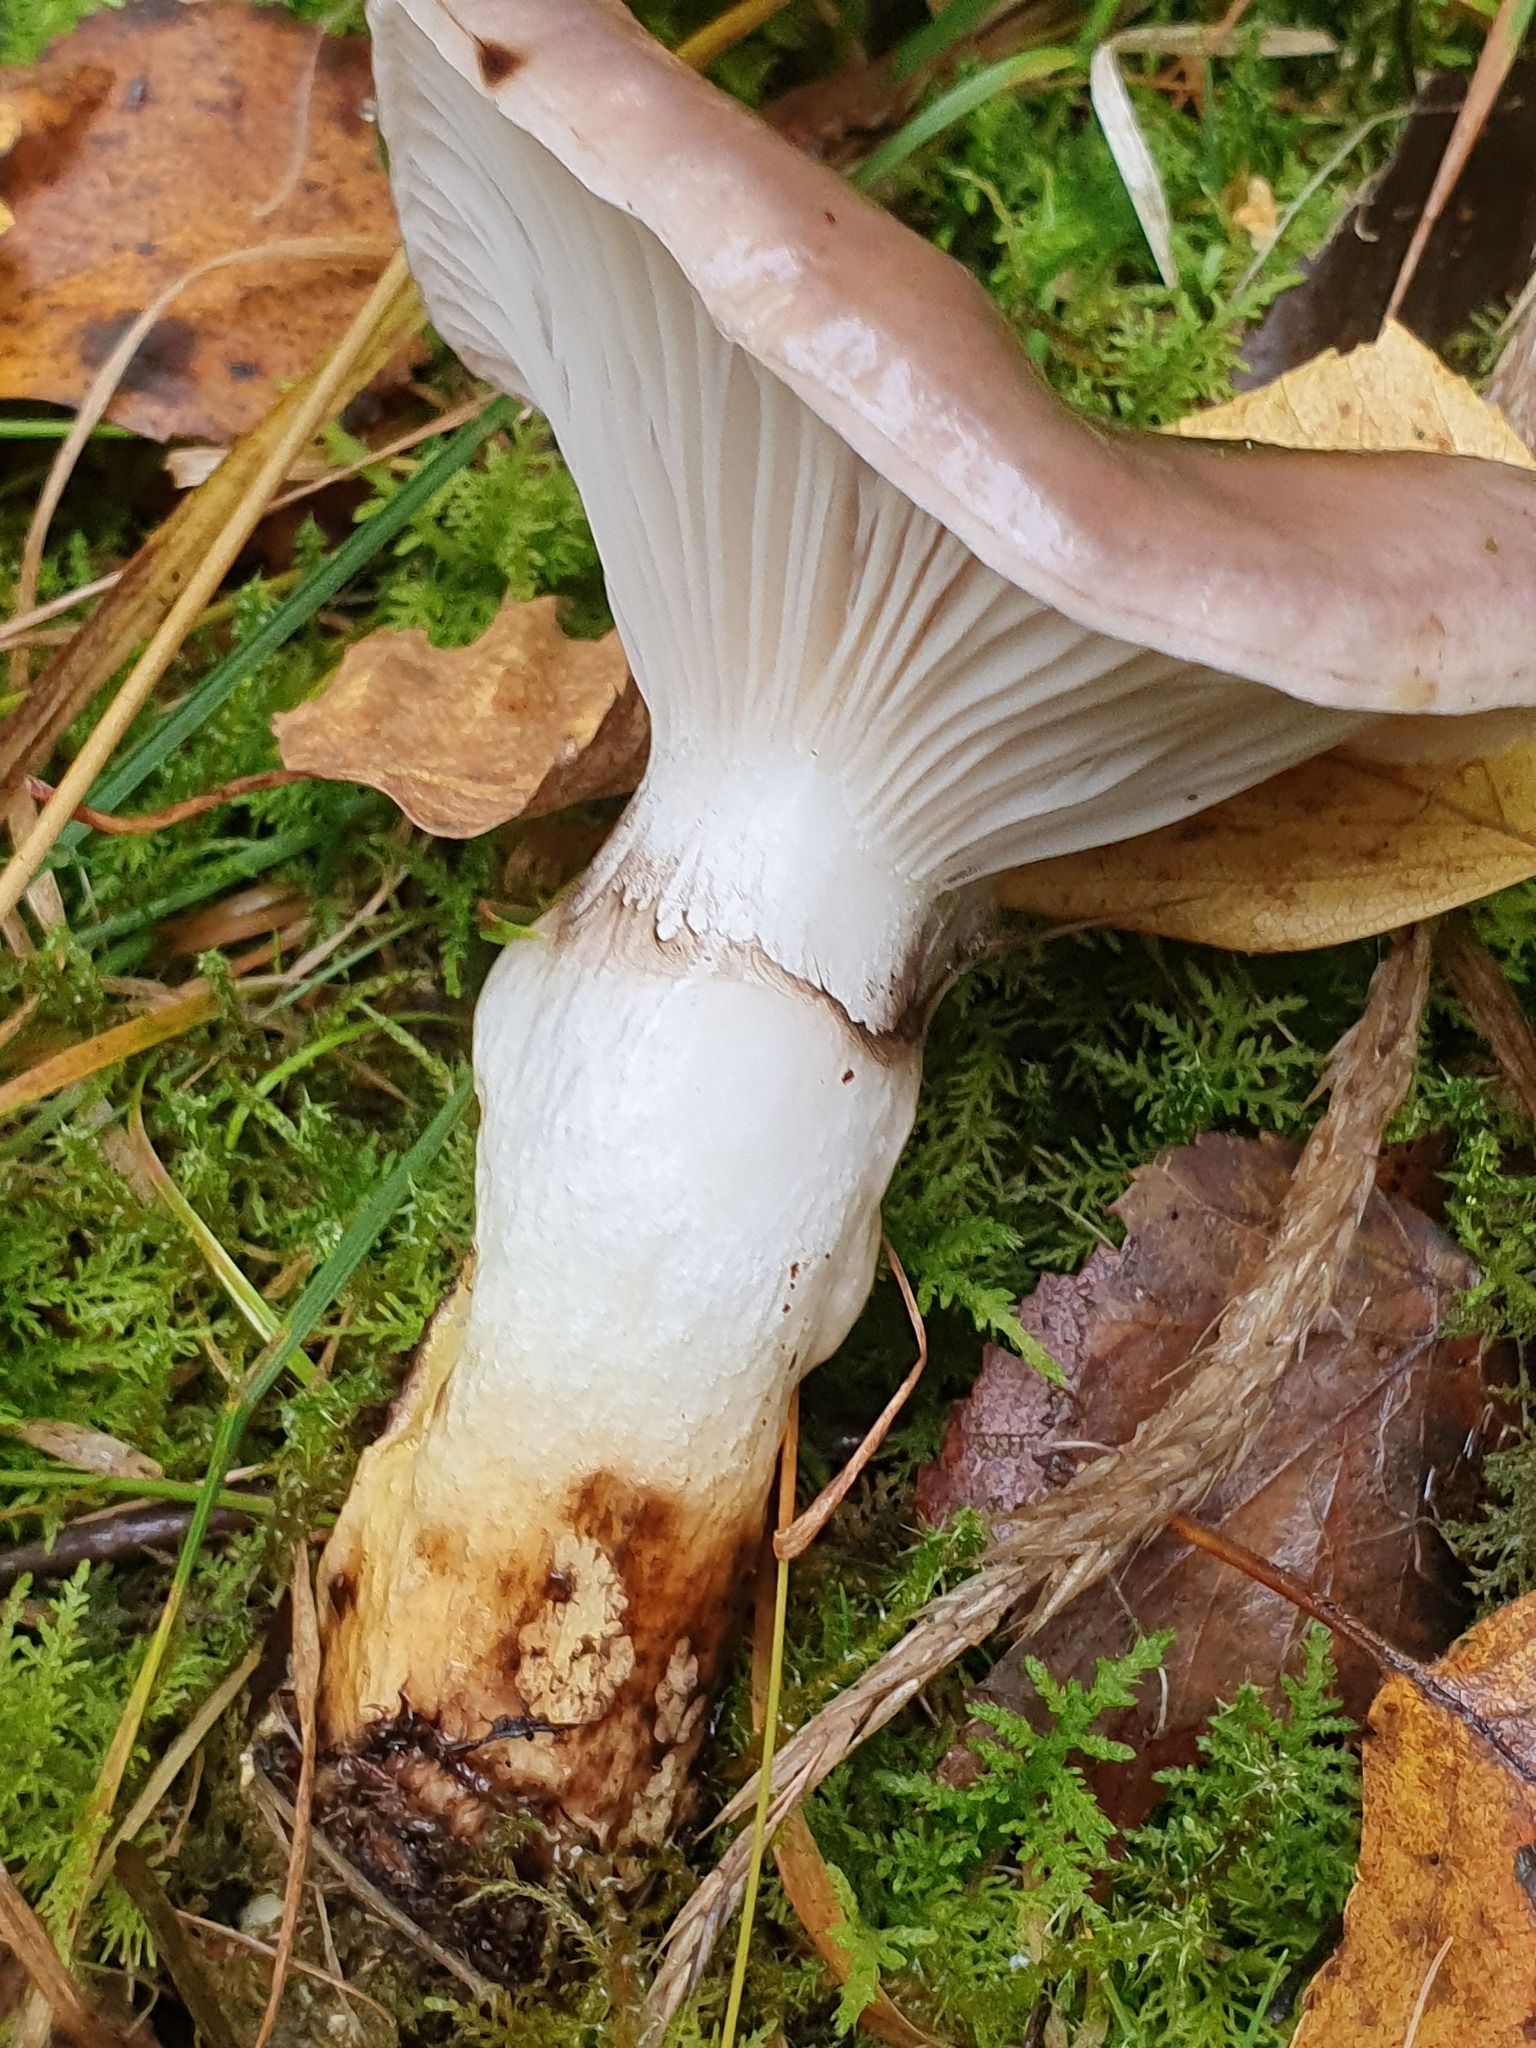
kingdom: Fungi
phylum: Basidiomycota
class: Agaricomycetes
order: Boletales
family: Gomphidiaceae
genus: Gomphidius
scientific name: Gomphidius glutinosus
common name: Slimy spike
